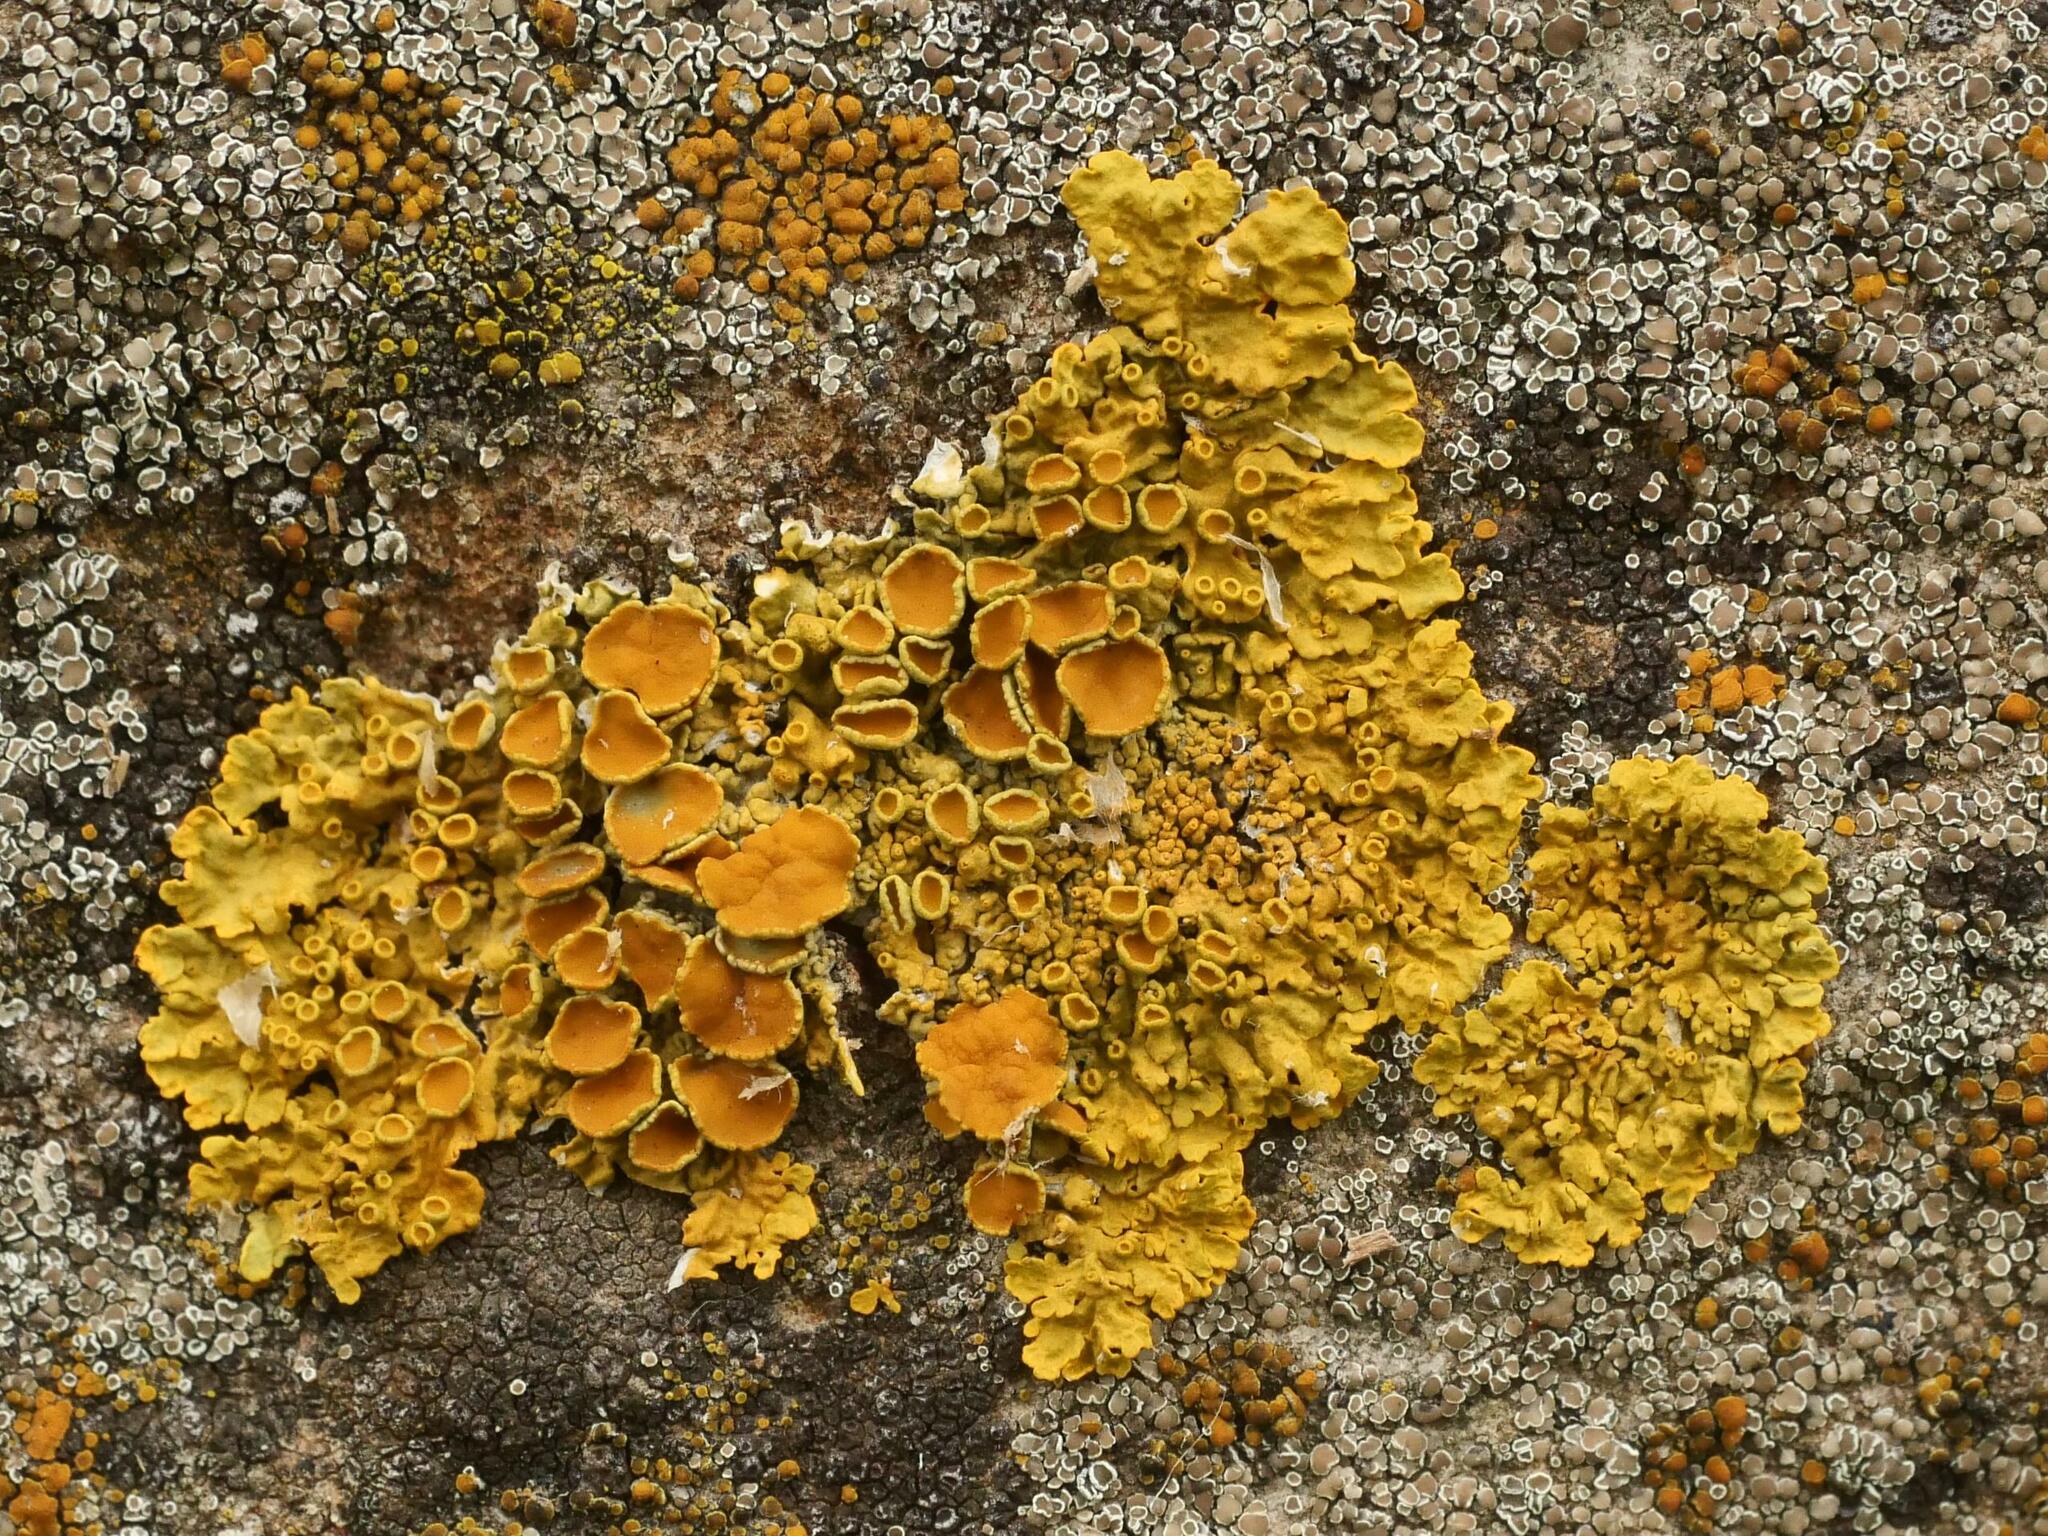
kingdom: Fungi
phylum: Ascomycota
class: Lecanoromycetes
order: Teloschistales
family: Teloschistaceae
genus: Xanthoria
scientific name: Xanthoria parietina
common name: Common orange lichen
